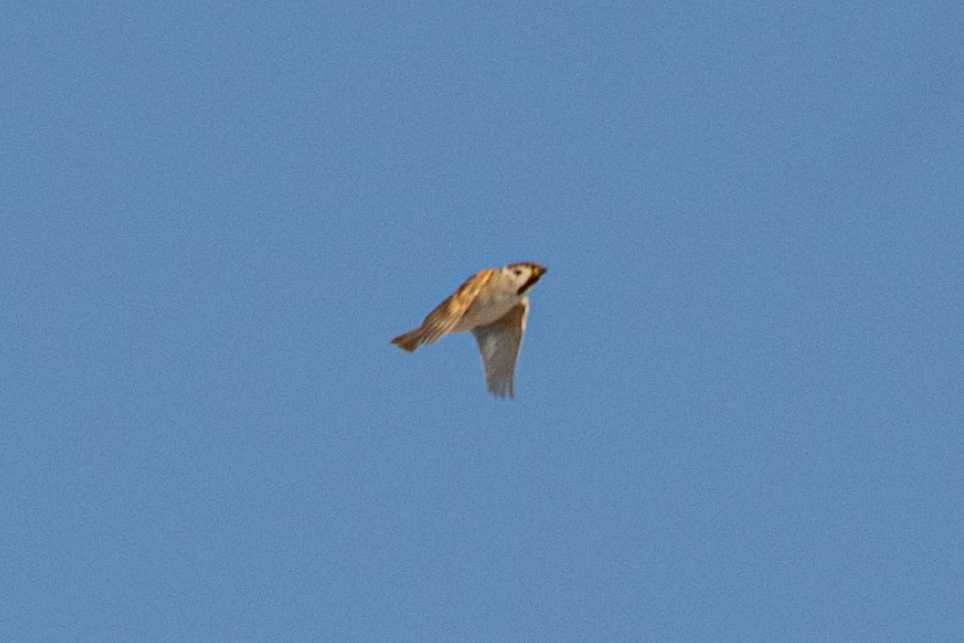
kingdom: Animalia
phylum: Chordata
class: Aves
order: Passeriformes
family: Passeridae
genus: Passer
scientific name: Passer montanus
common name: Eurasian tree sparrow
